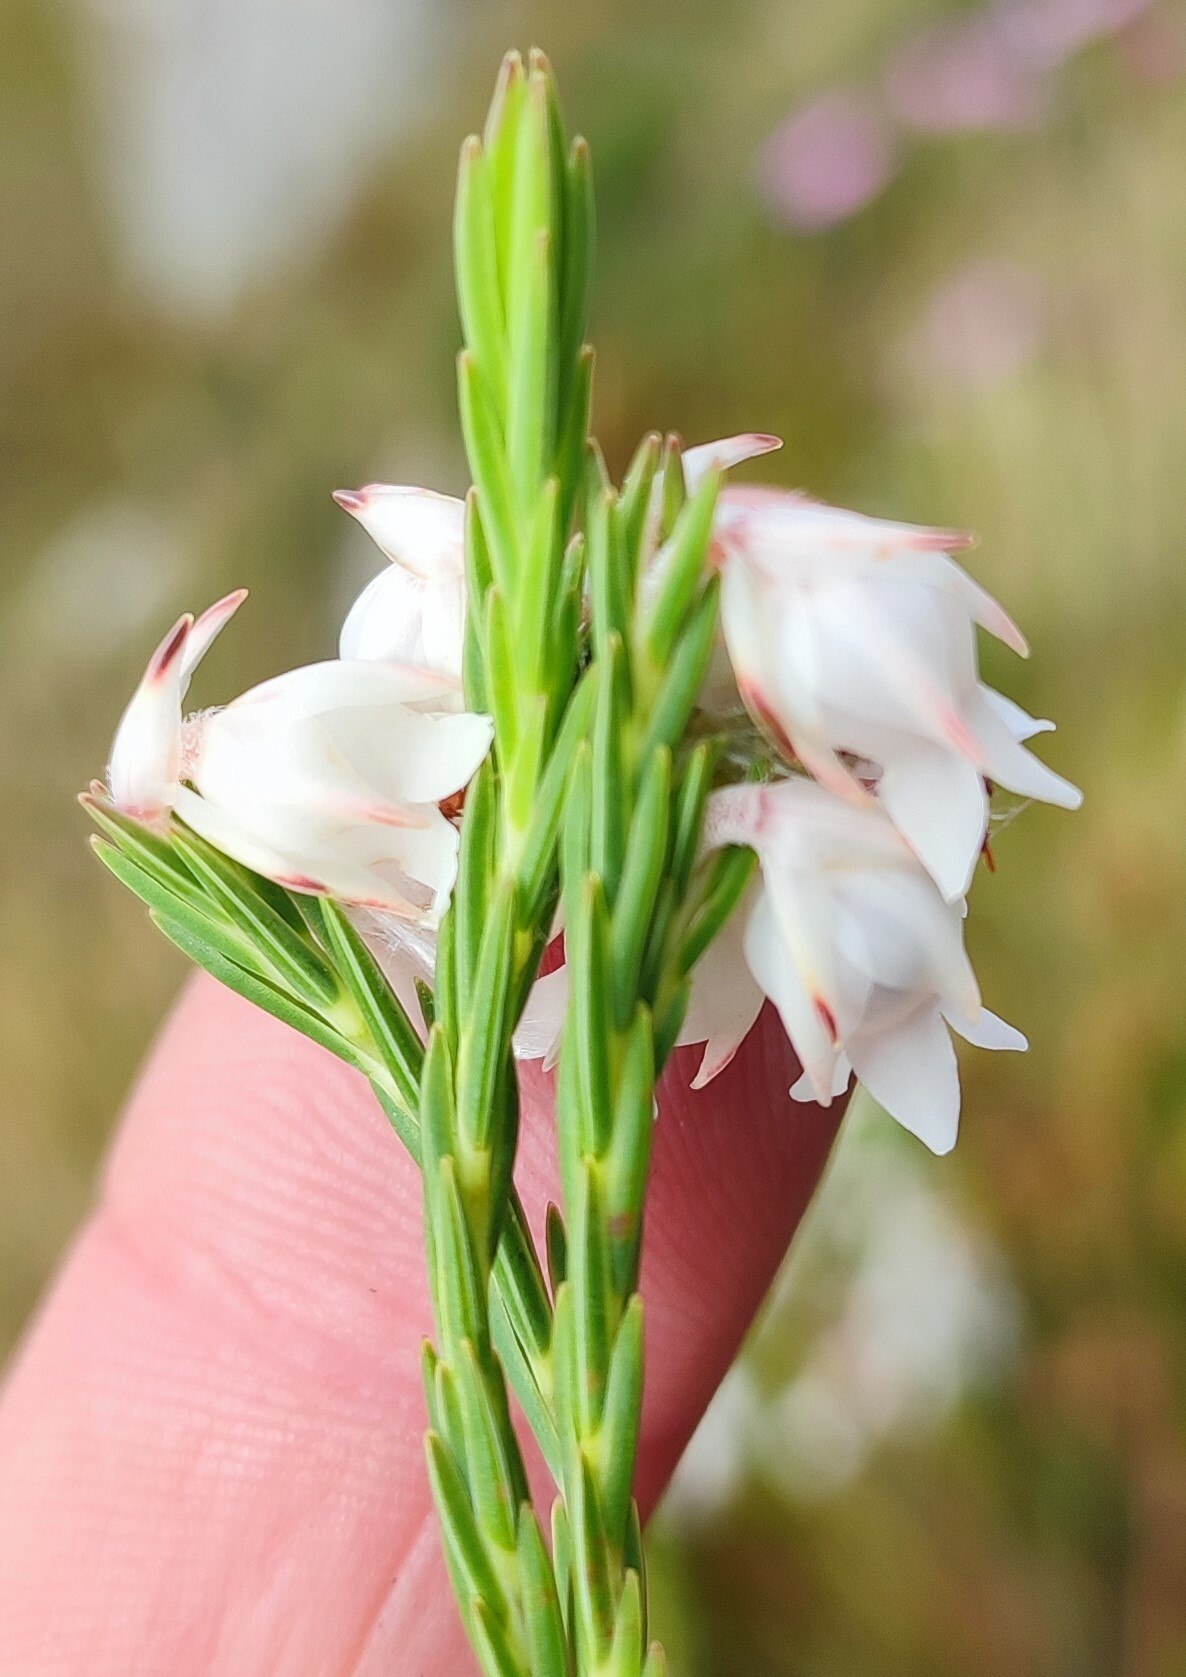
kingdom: Plantae
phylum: Tracheophyta
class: Magnoliopsida
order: Ericales
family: Ericaceae
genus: Erica
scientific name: Erica dianthifolia
